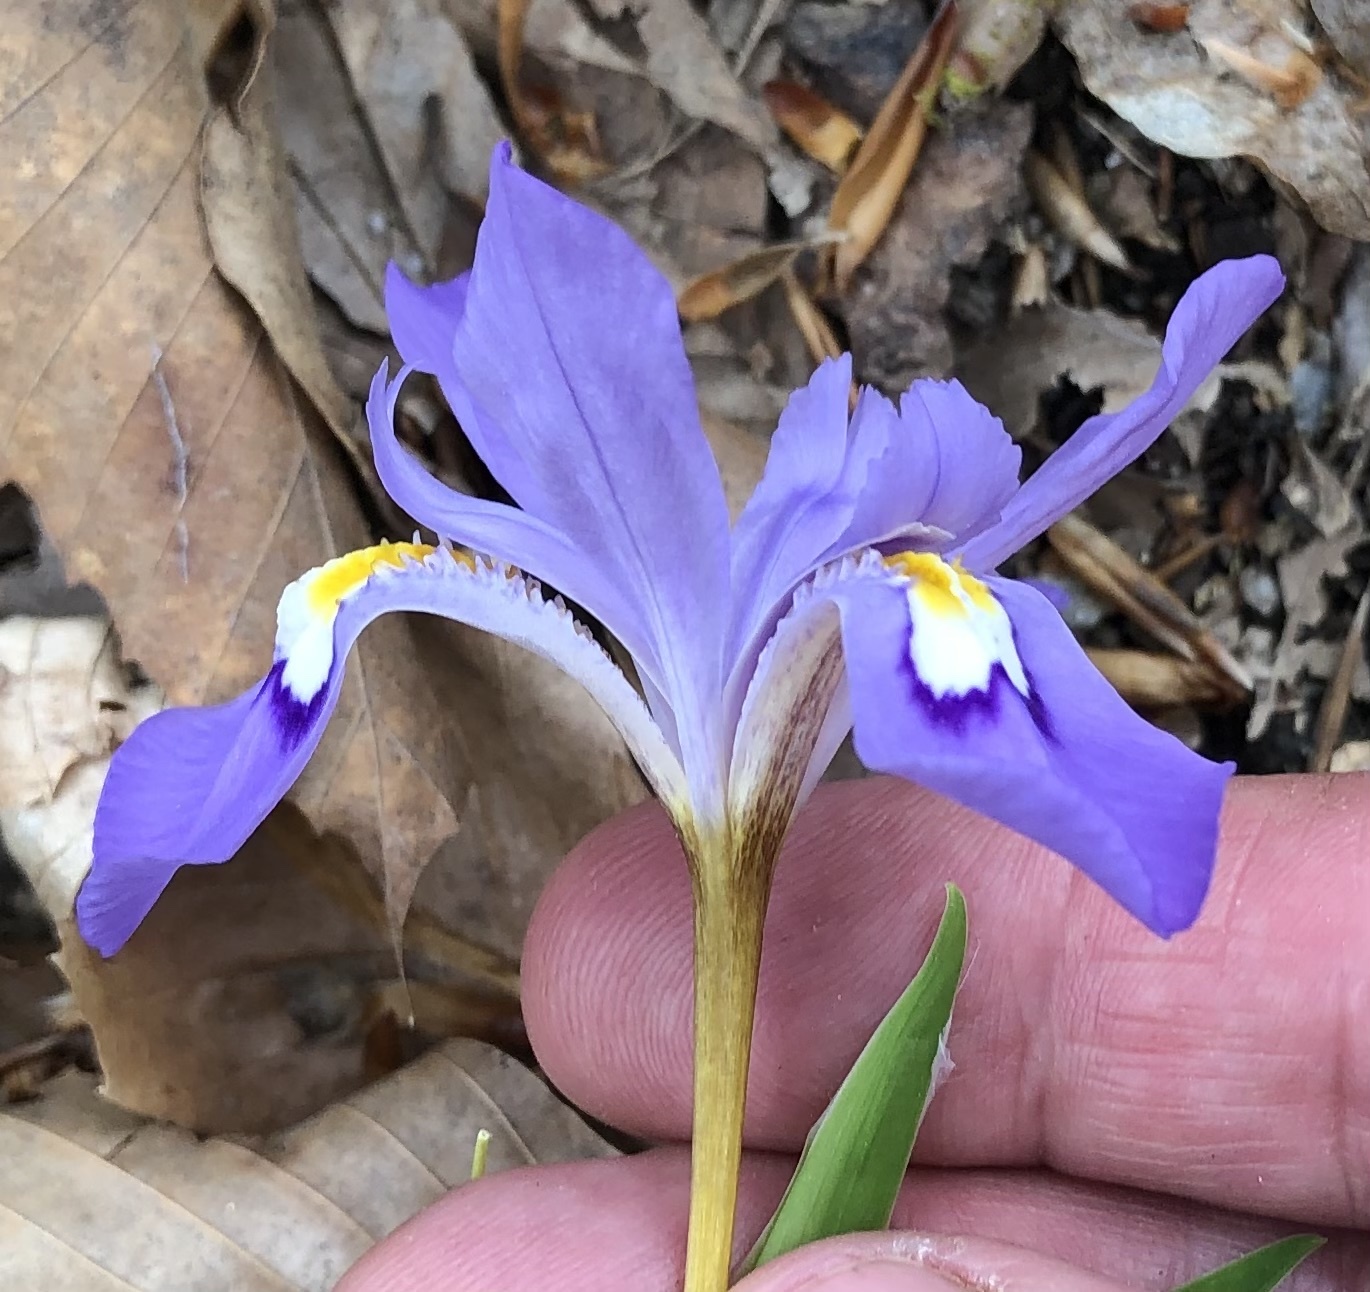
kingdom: Plantae
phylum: Tracheophyta
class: Liliopsida
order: Asparagales
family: Iridaceae
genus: Iris
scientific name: Iris cristata
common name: Crested iris
